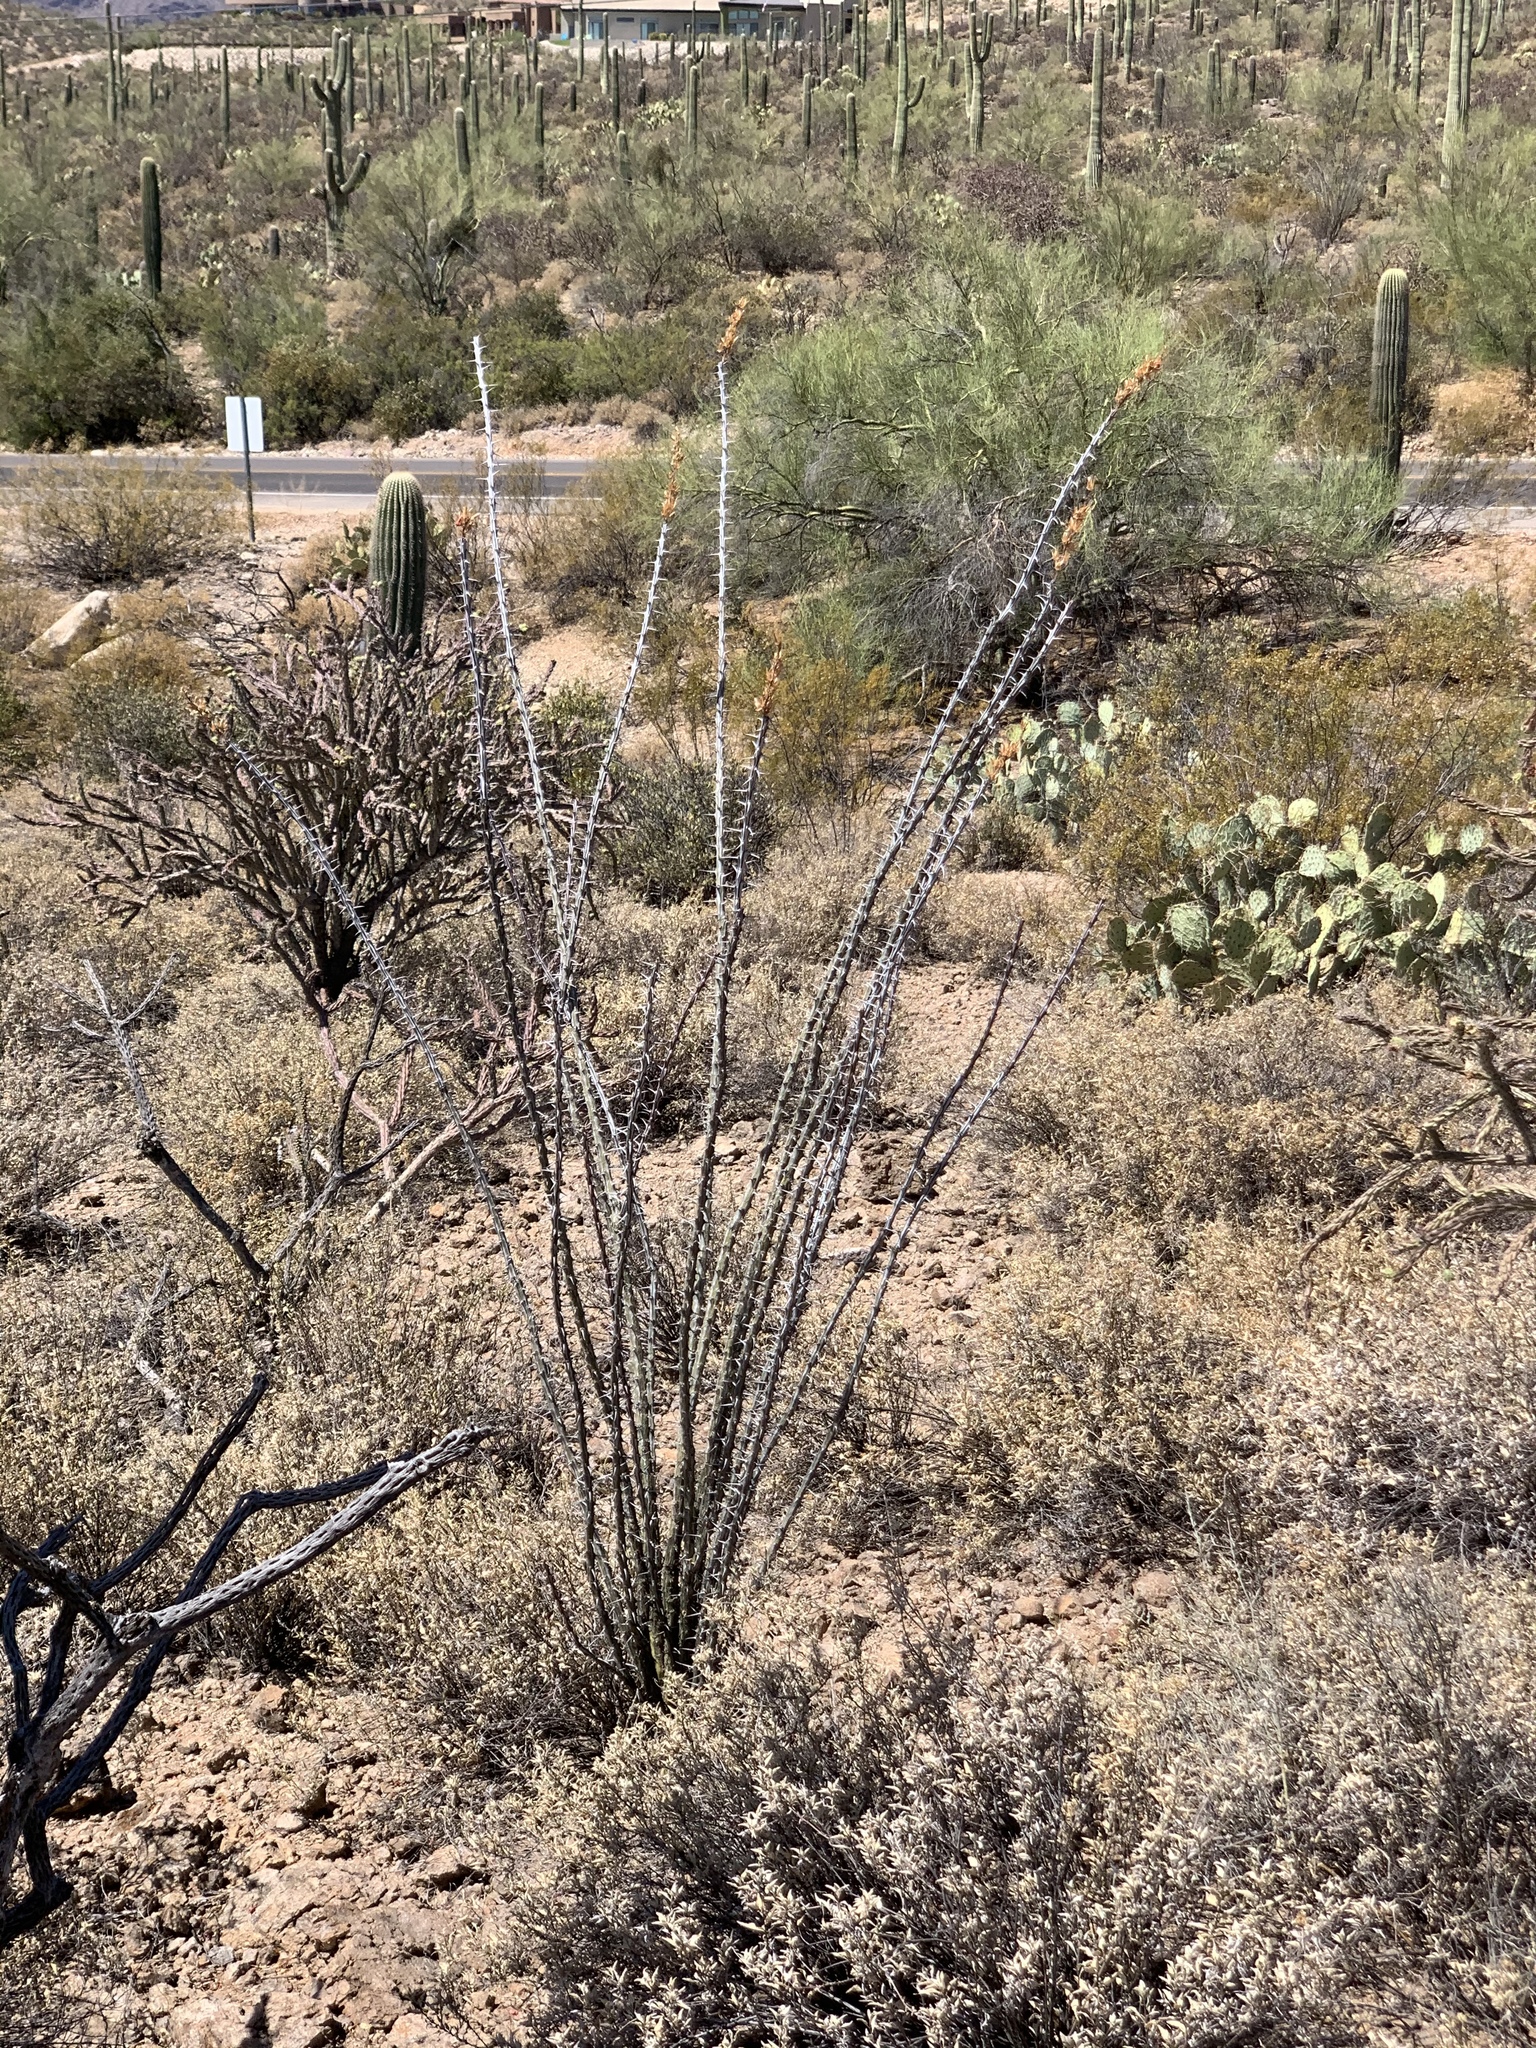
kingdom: Plantae
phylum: Tracheophyta
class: Magnoliopsida
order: Ericales
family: Fouquieriaceae
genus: Fouquieria
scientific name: Fouquieria splendens
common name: Vine-cactus
